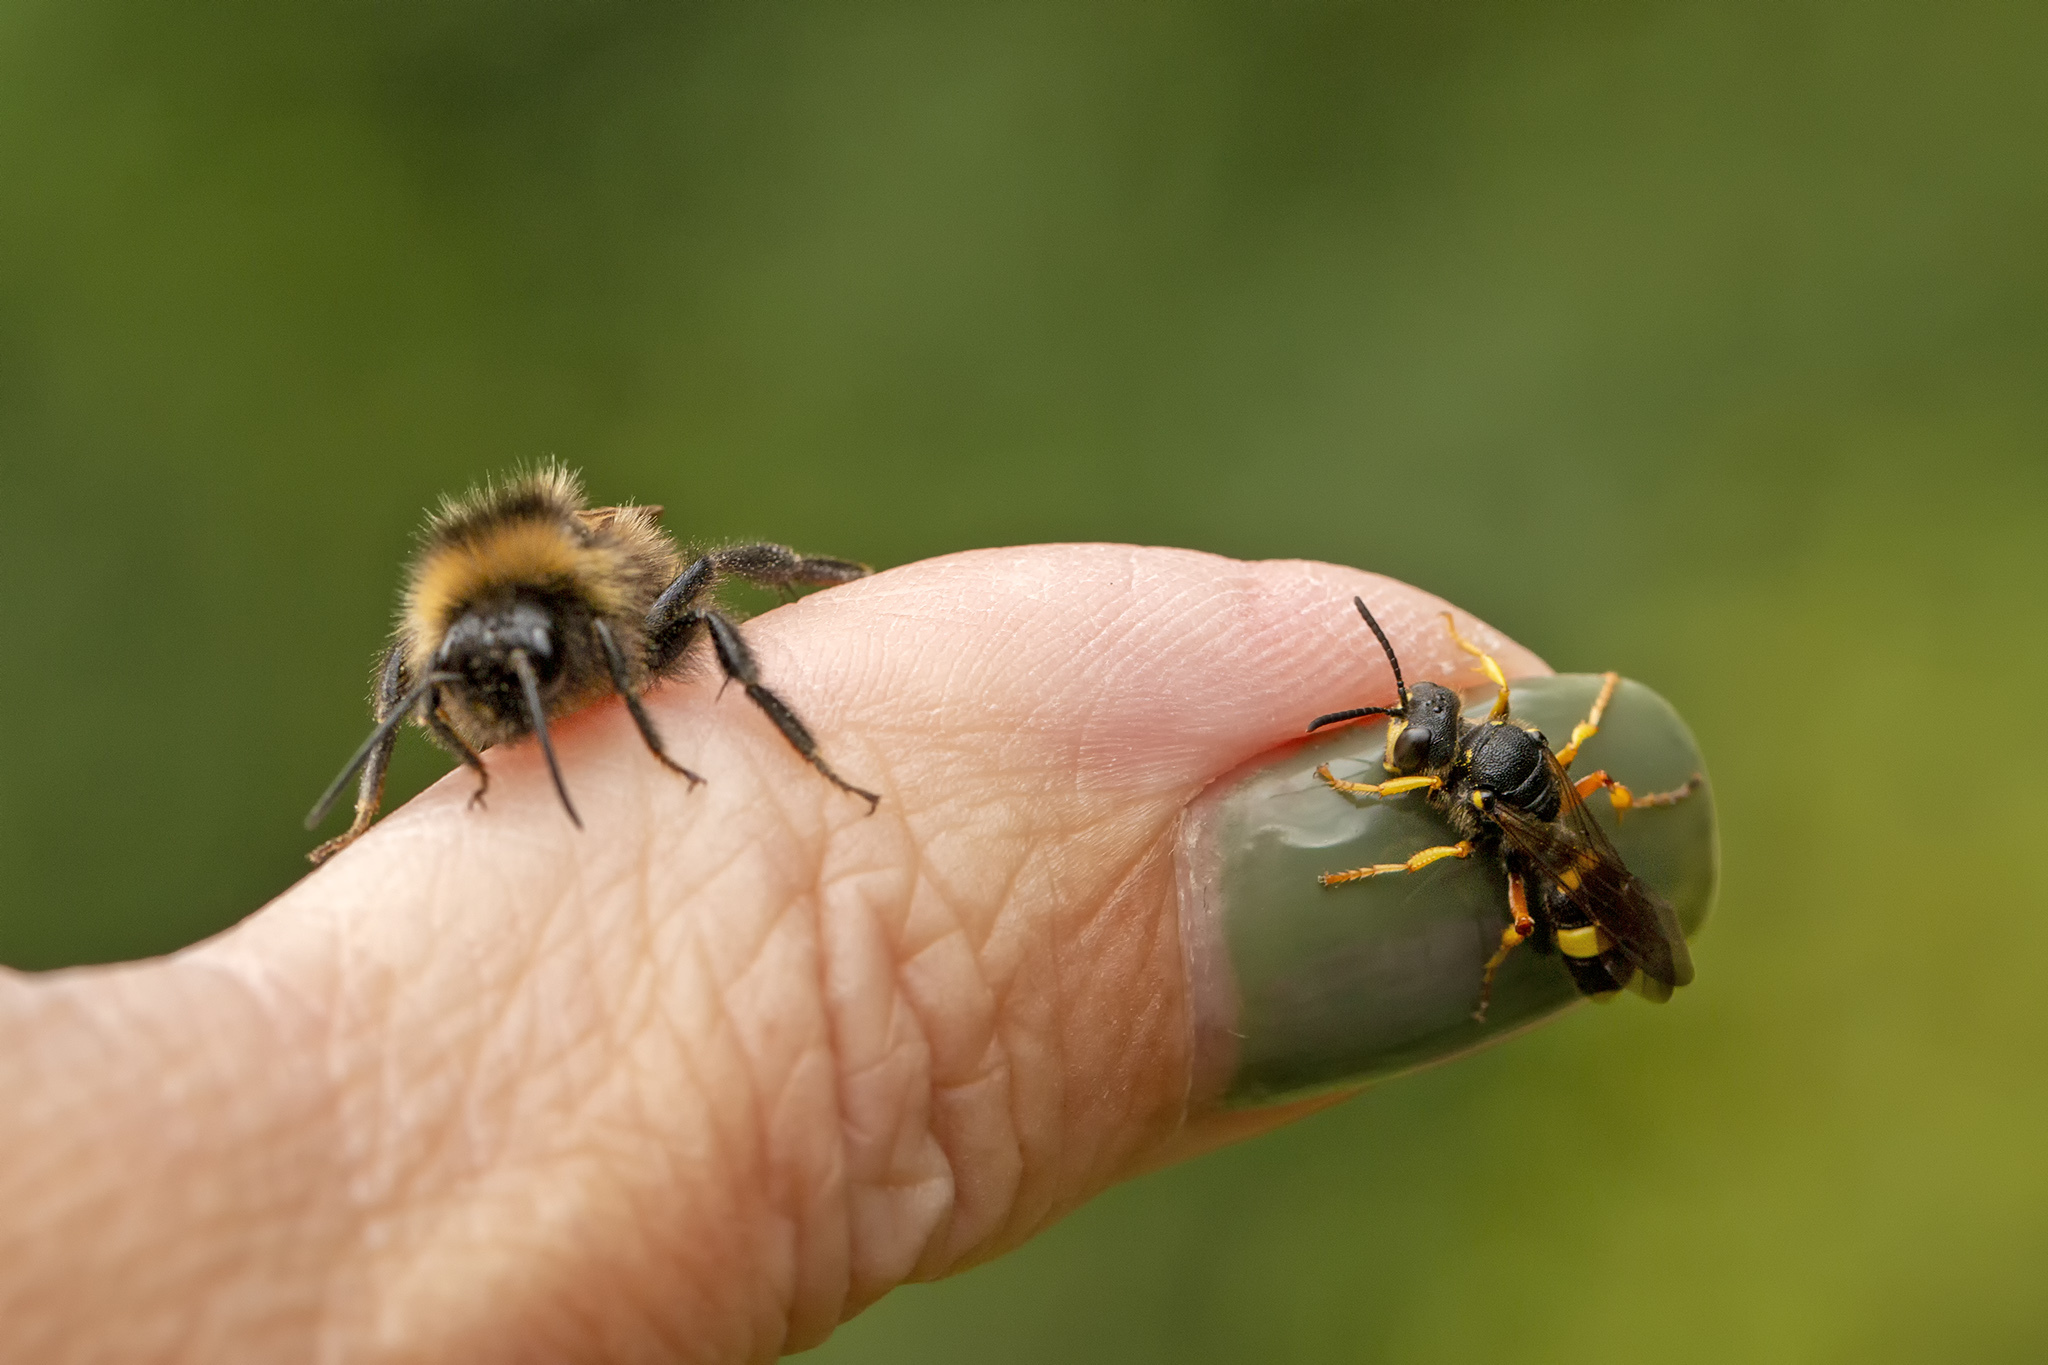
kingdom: Animalia
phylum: Arthropoda
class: Insecta
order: Hymenoptera
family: Crabronidae
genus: Cerceris
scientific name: Cerceris rybyensis
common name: Ornate tailed digger wasp
